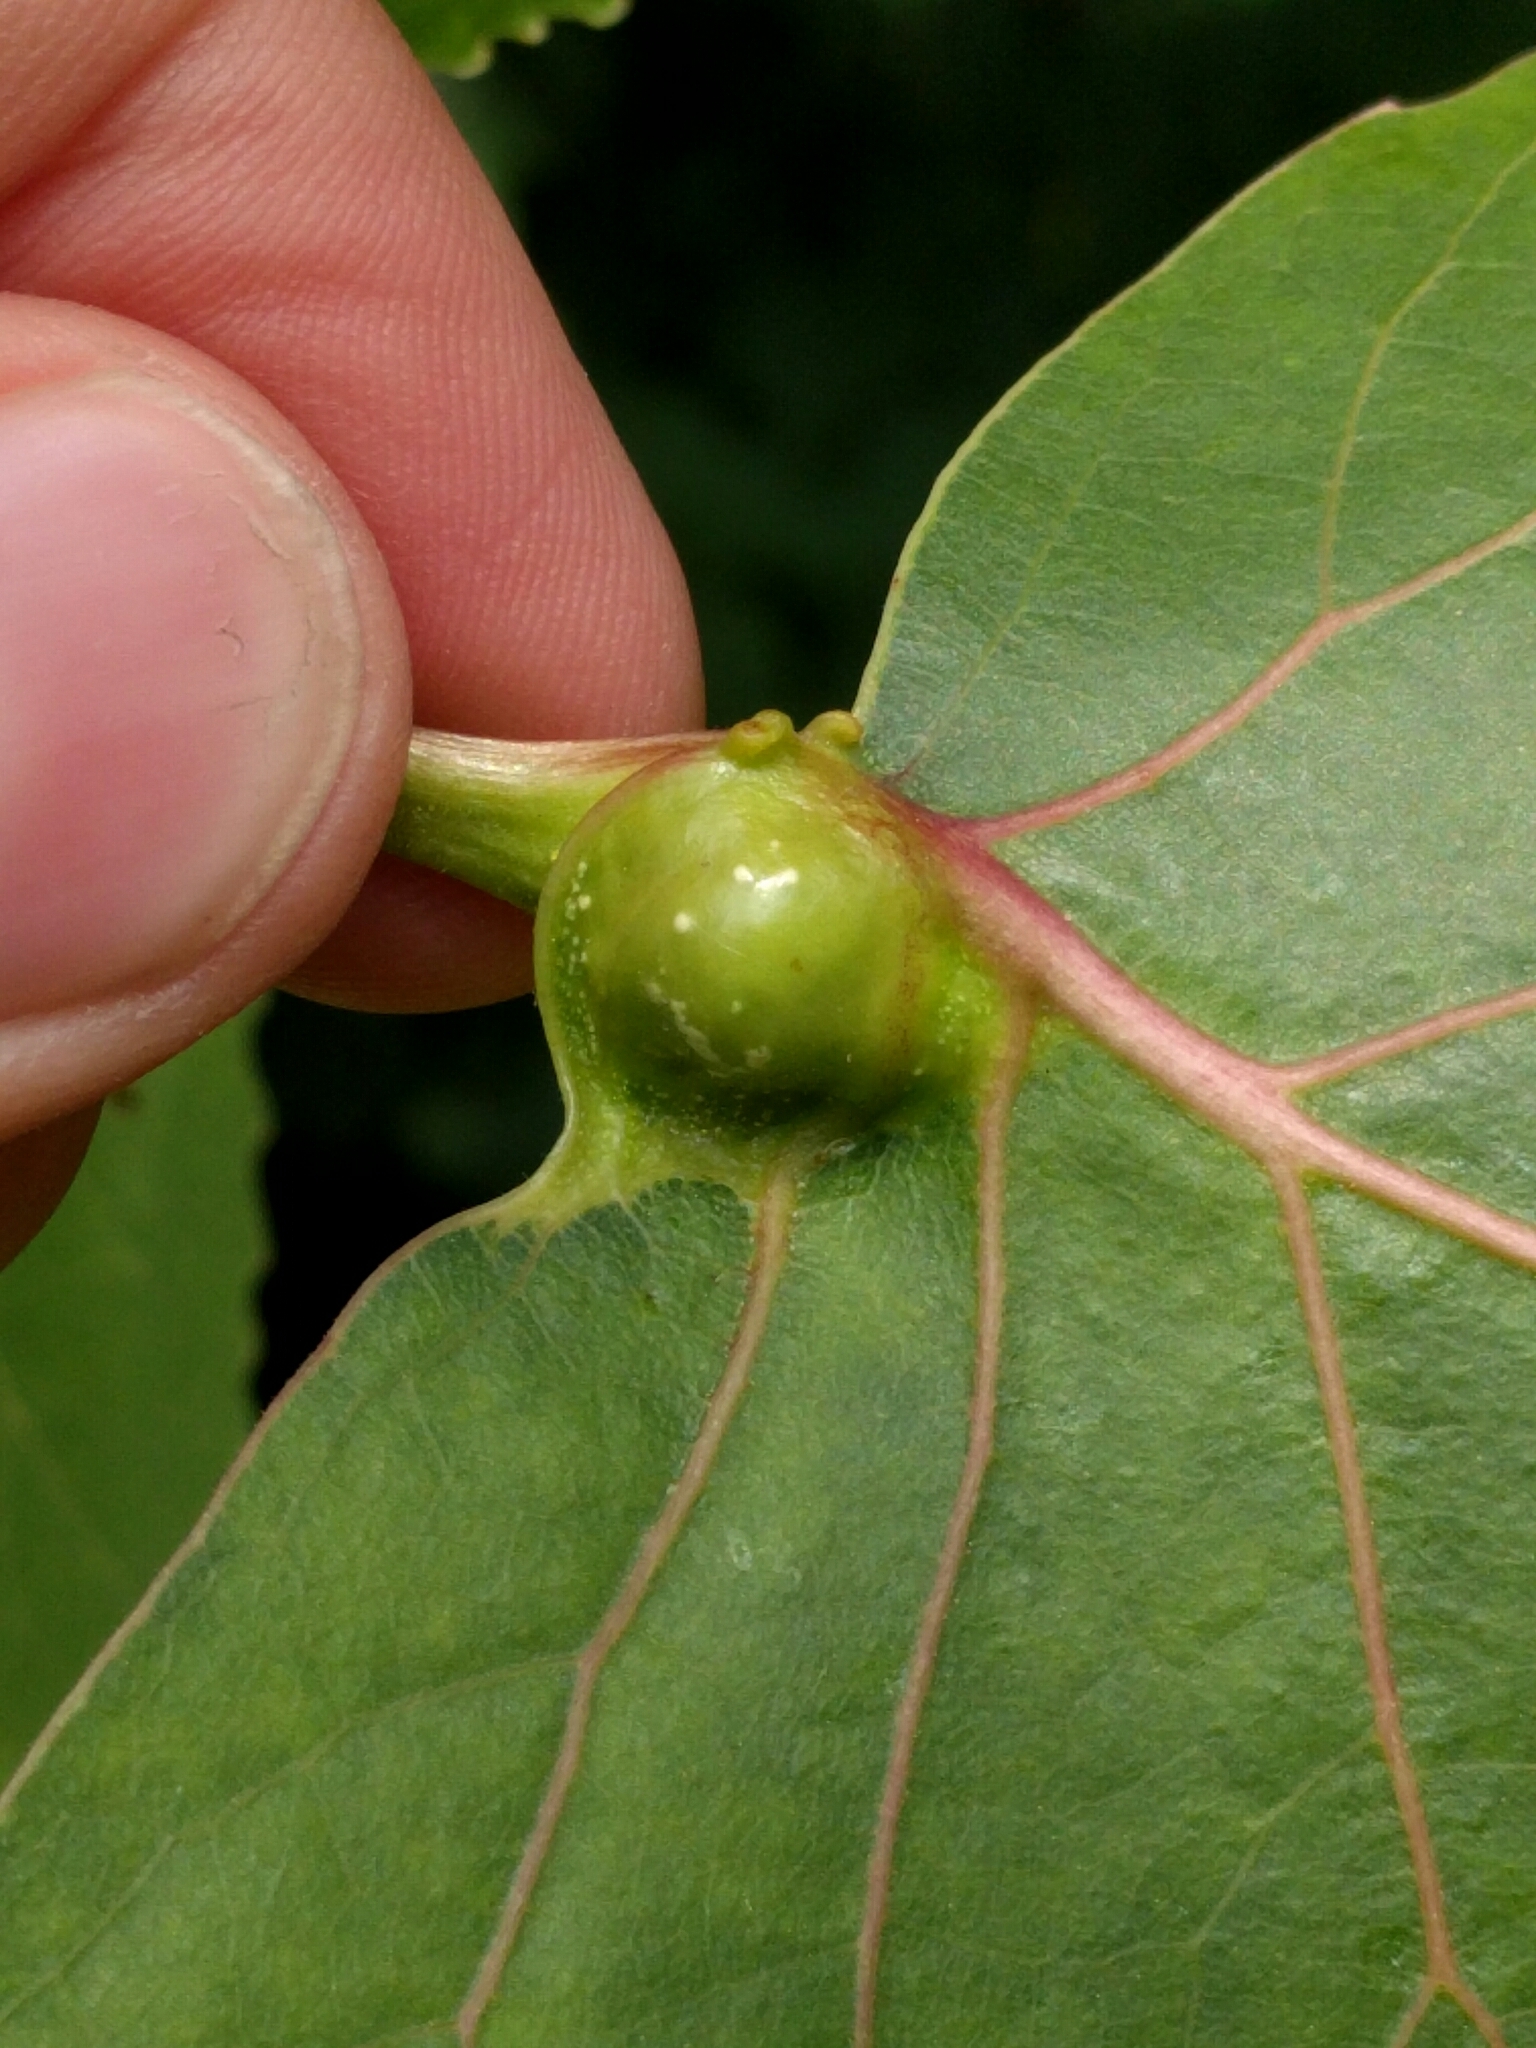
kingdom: Animalia
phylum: Arthropoda
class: Insecta
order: Hemiptera
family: Aphididae
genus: Pemphigus
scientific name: Pemphigus populicaulis
